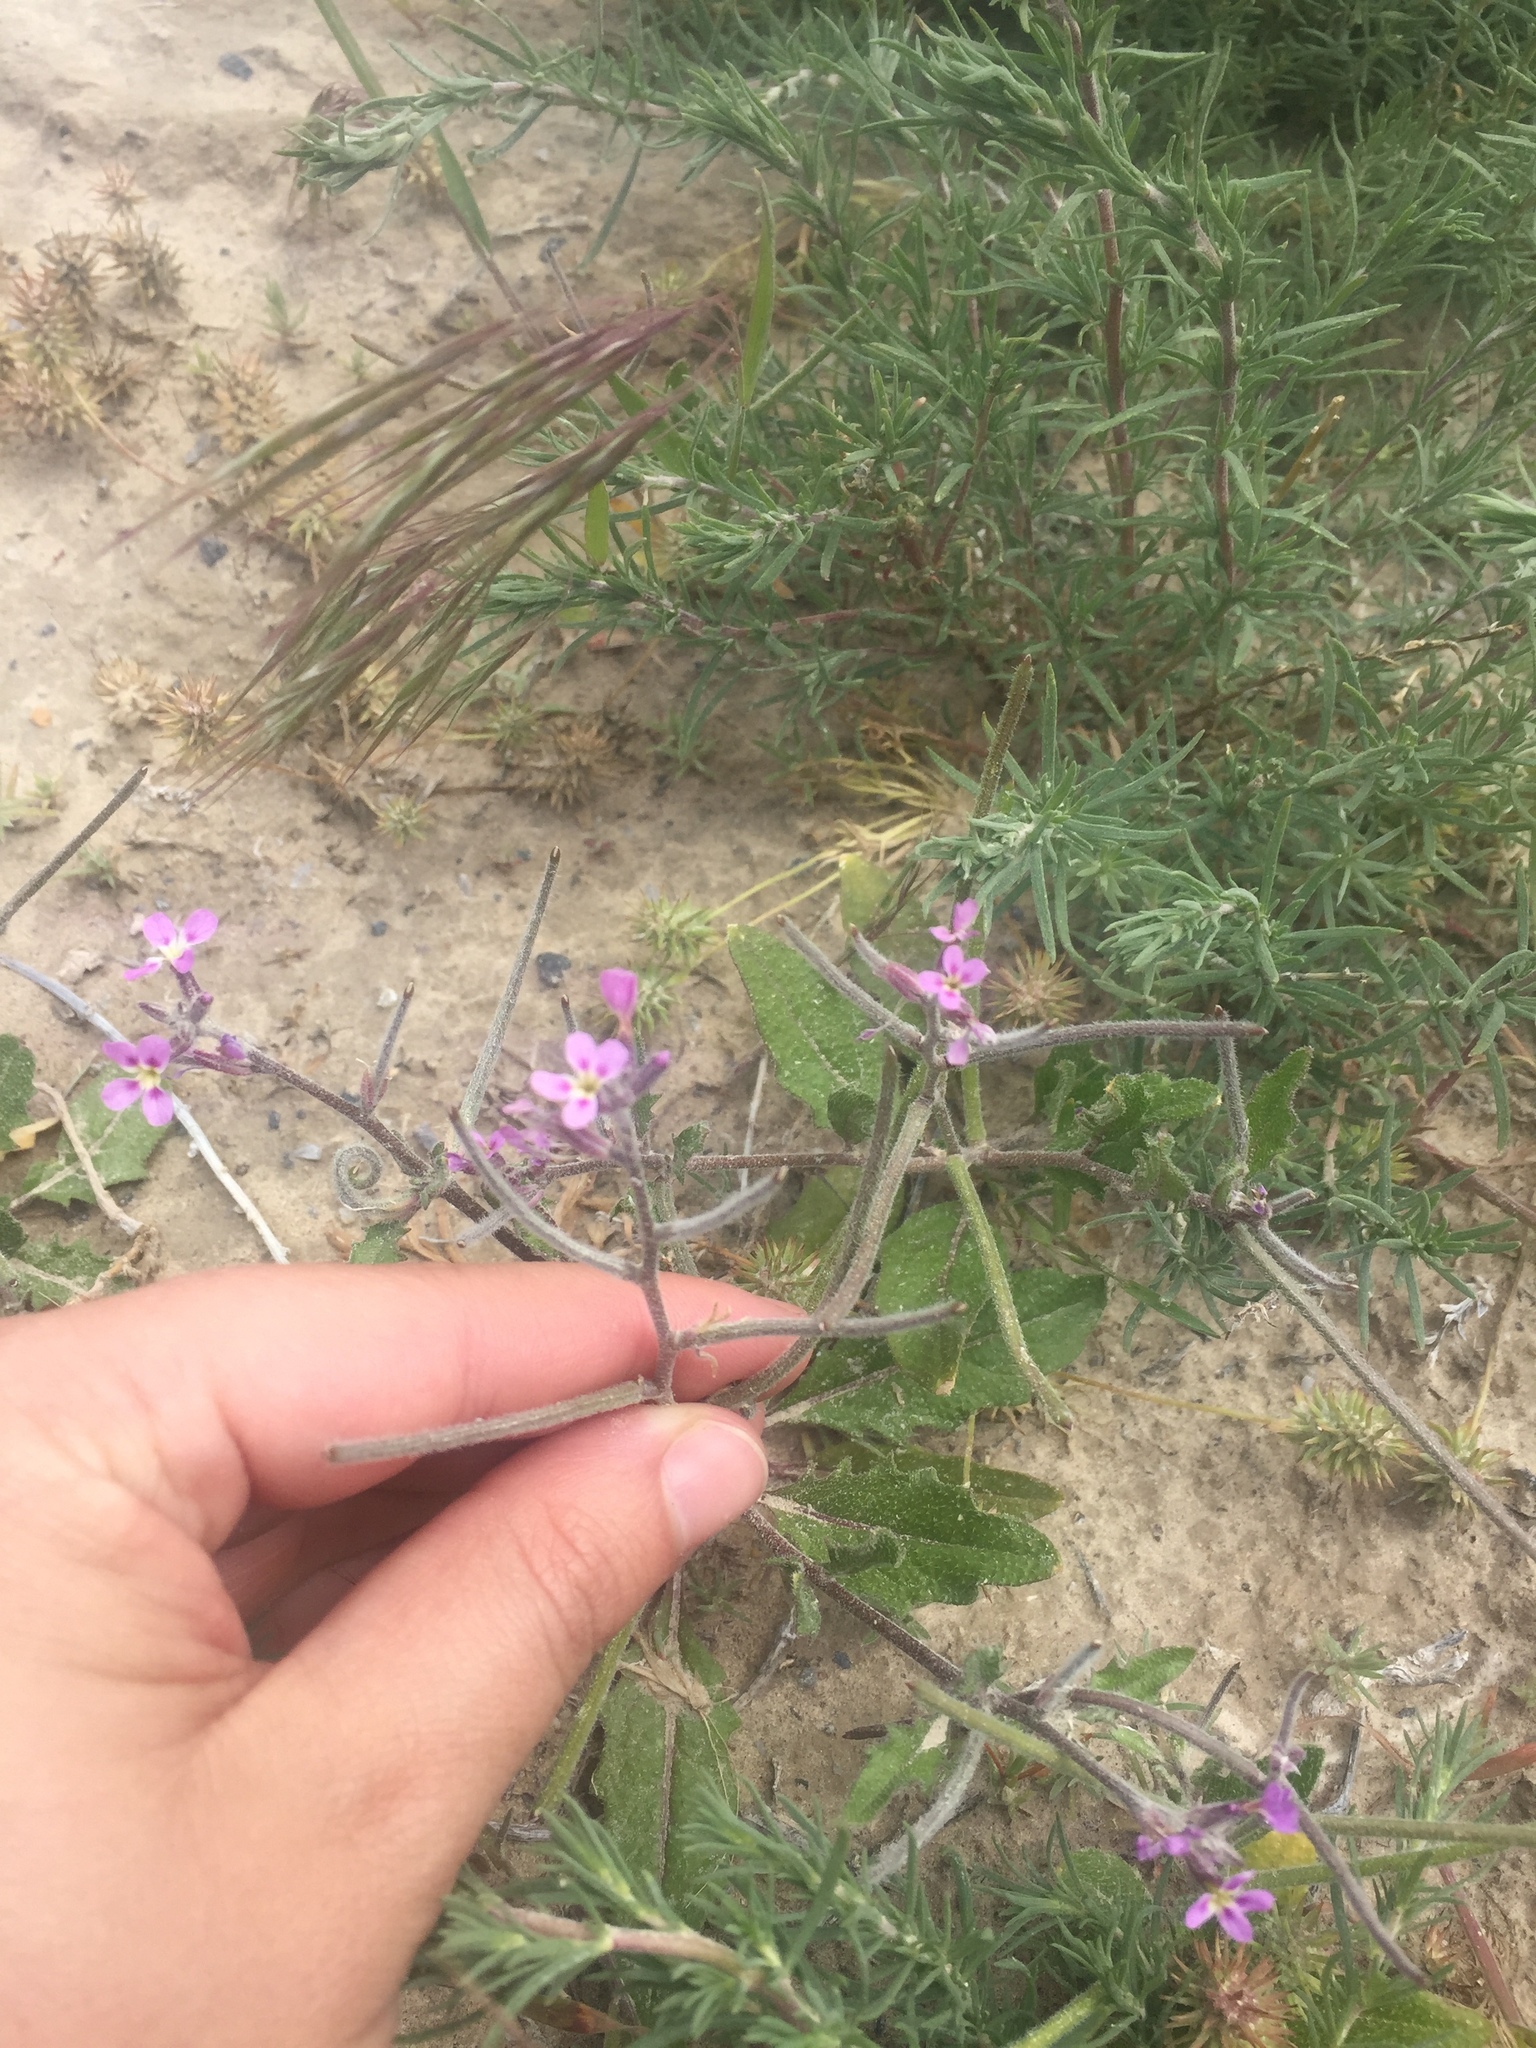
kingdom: Plantae
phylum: Tracheophyta
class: Magnoliopsida
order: Brassicales
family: Brassicaceae
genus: Strigosella
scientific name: Strigosella africana
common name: African mustard
